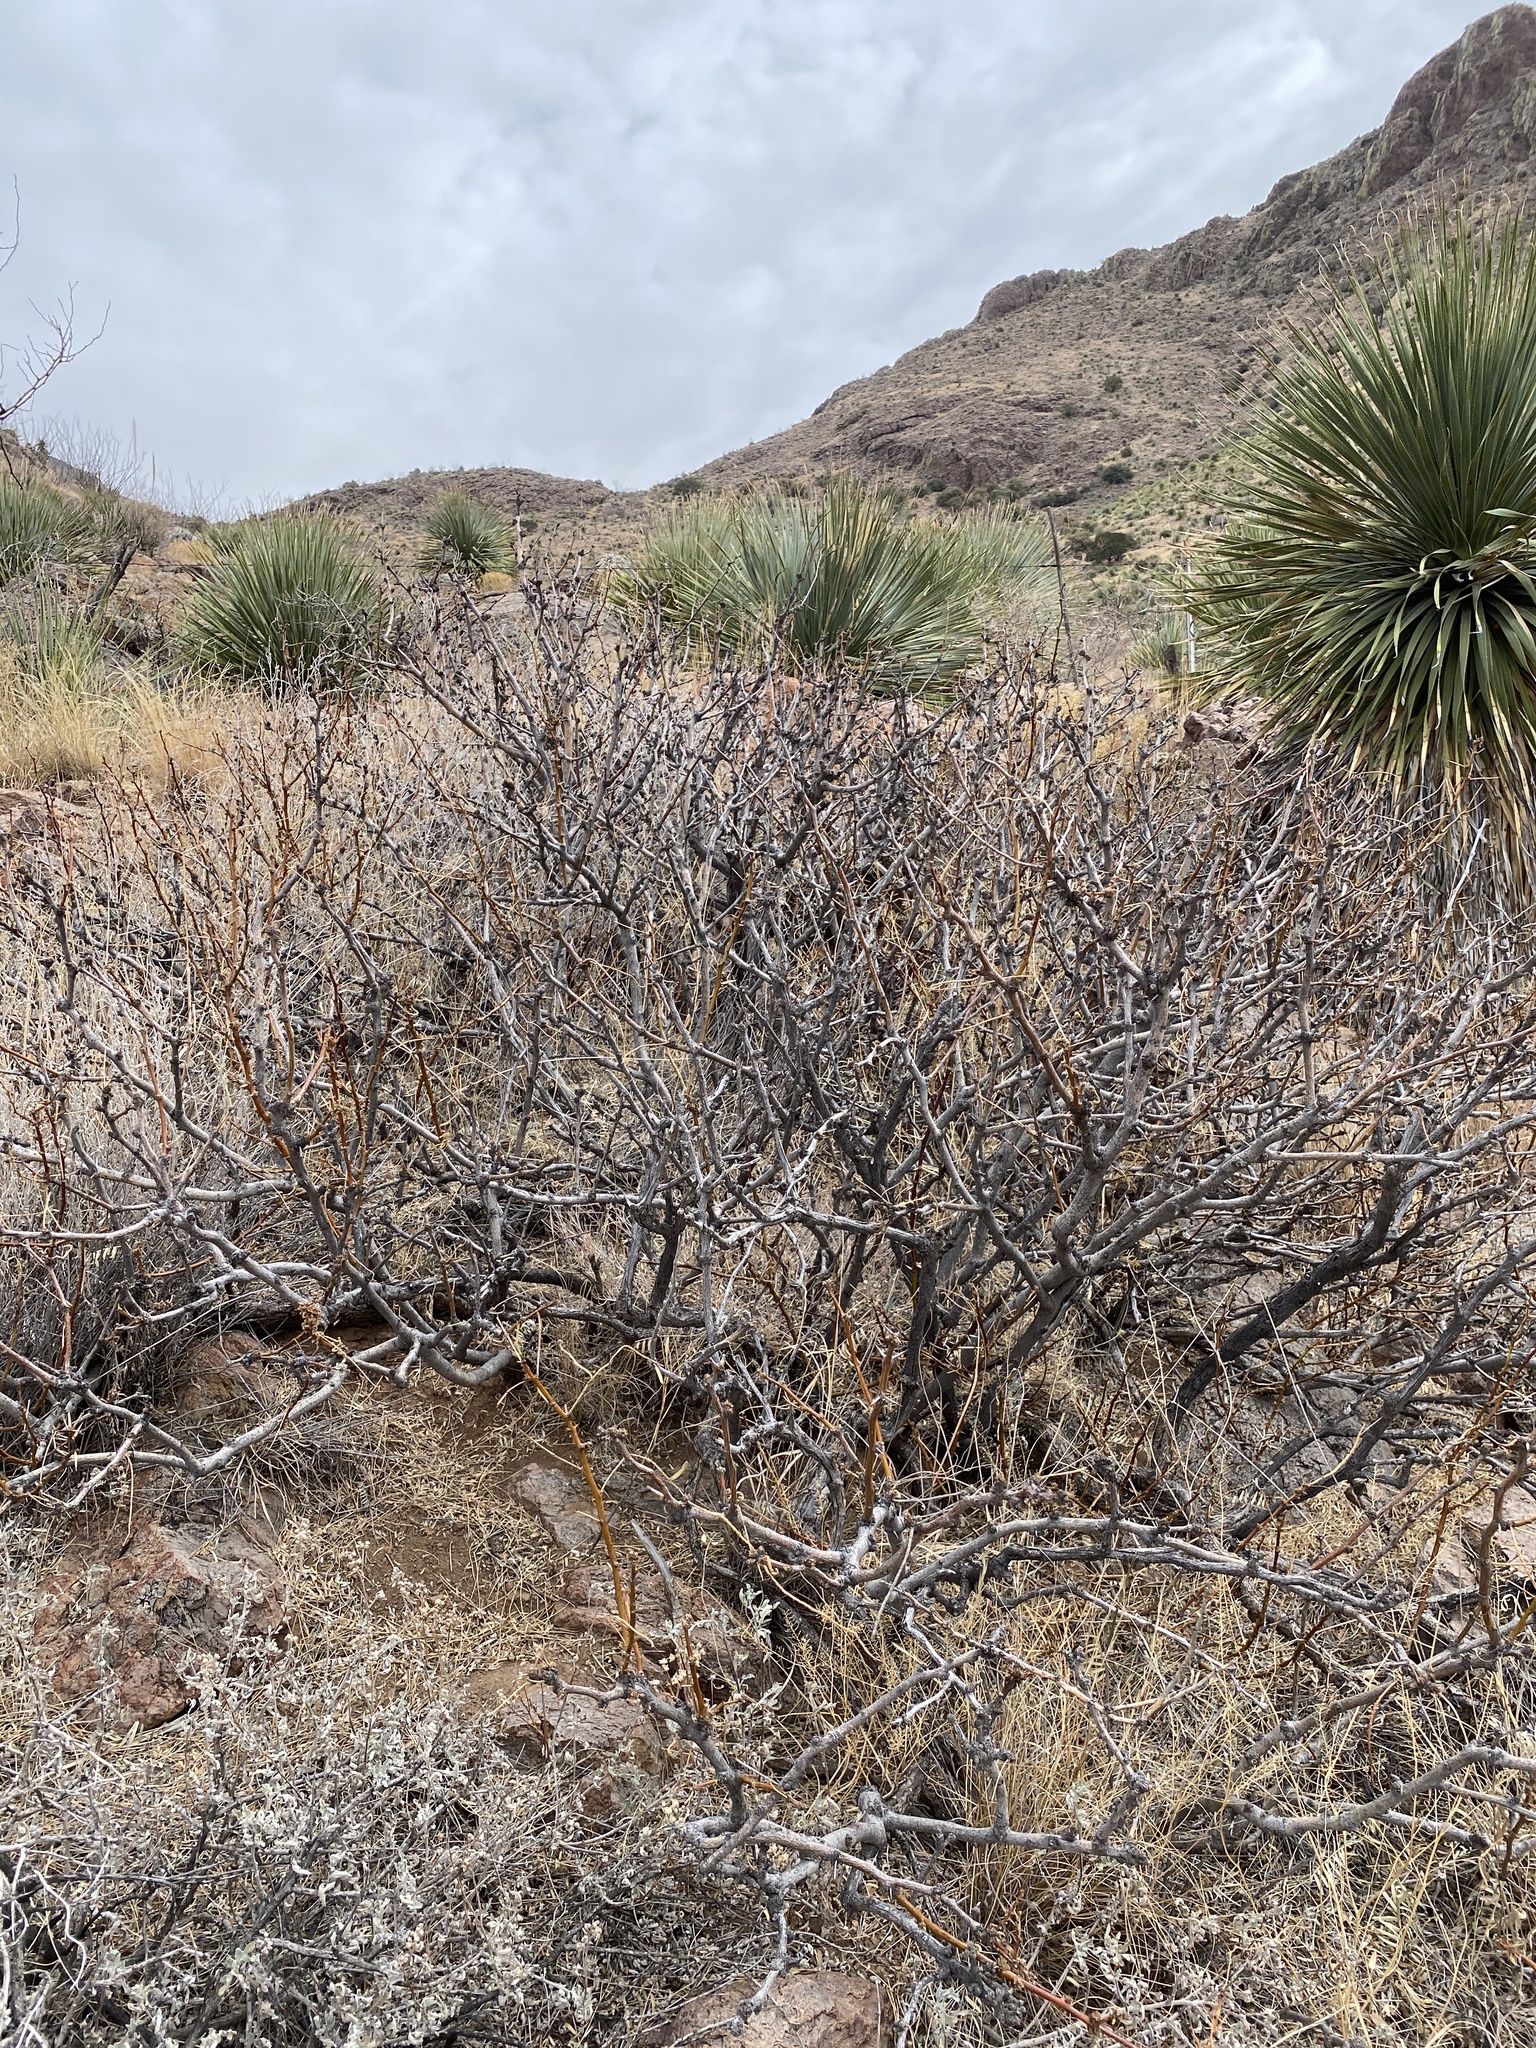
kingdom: Plantae
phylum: Tracheophyta
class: Magnoliopsida
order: Fabales
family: Fabaceae
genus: Prosopis
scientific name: Prosopis glandulosa
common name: Honey mesquite
